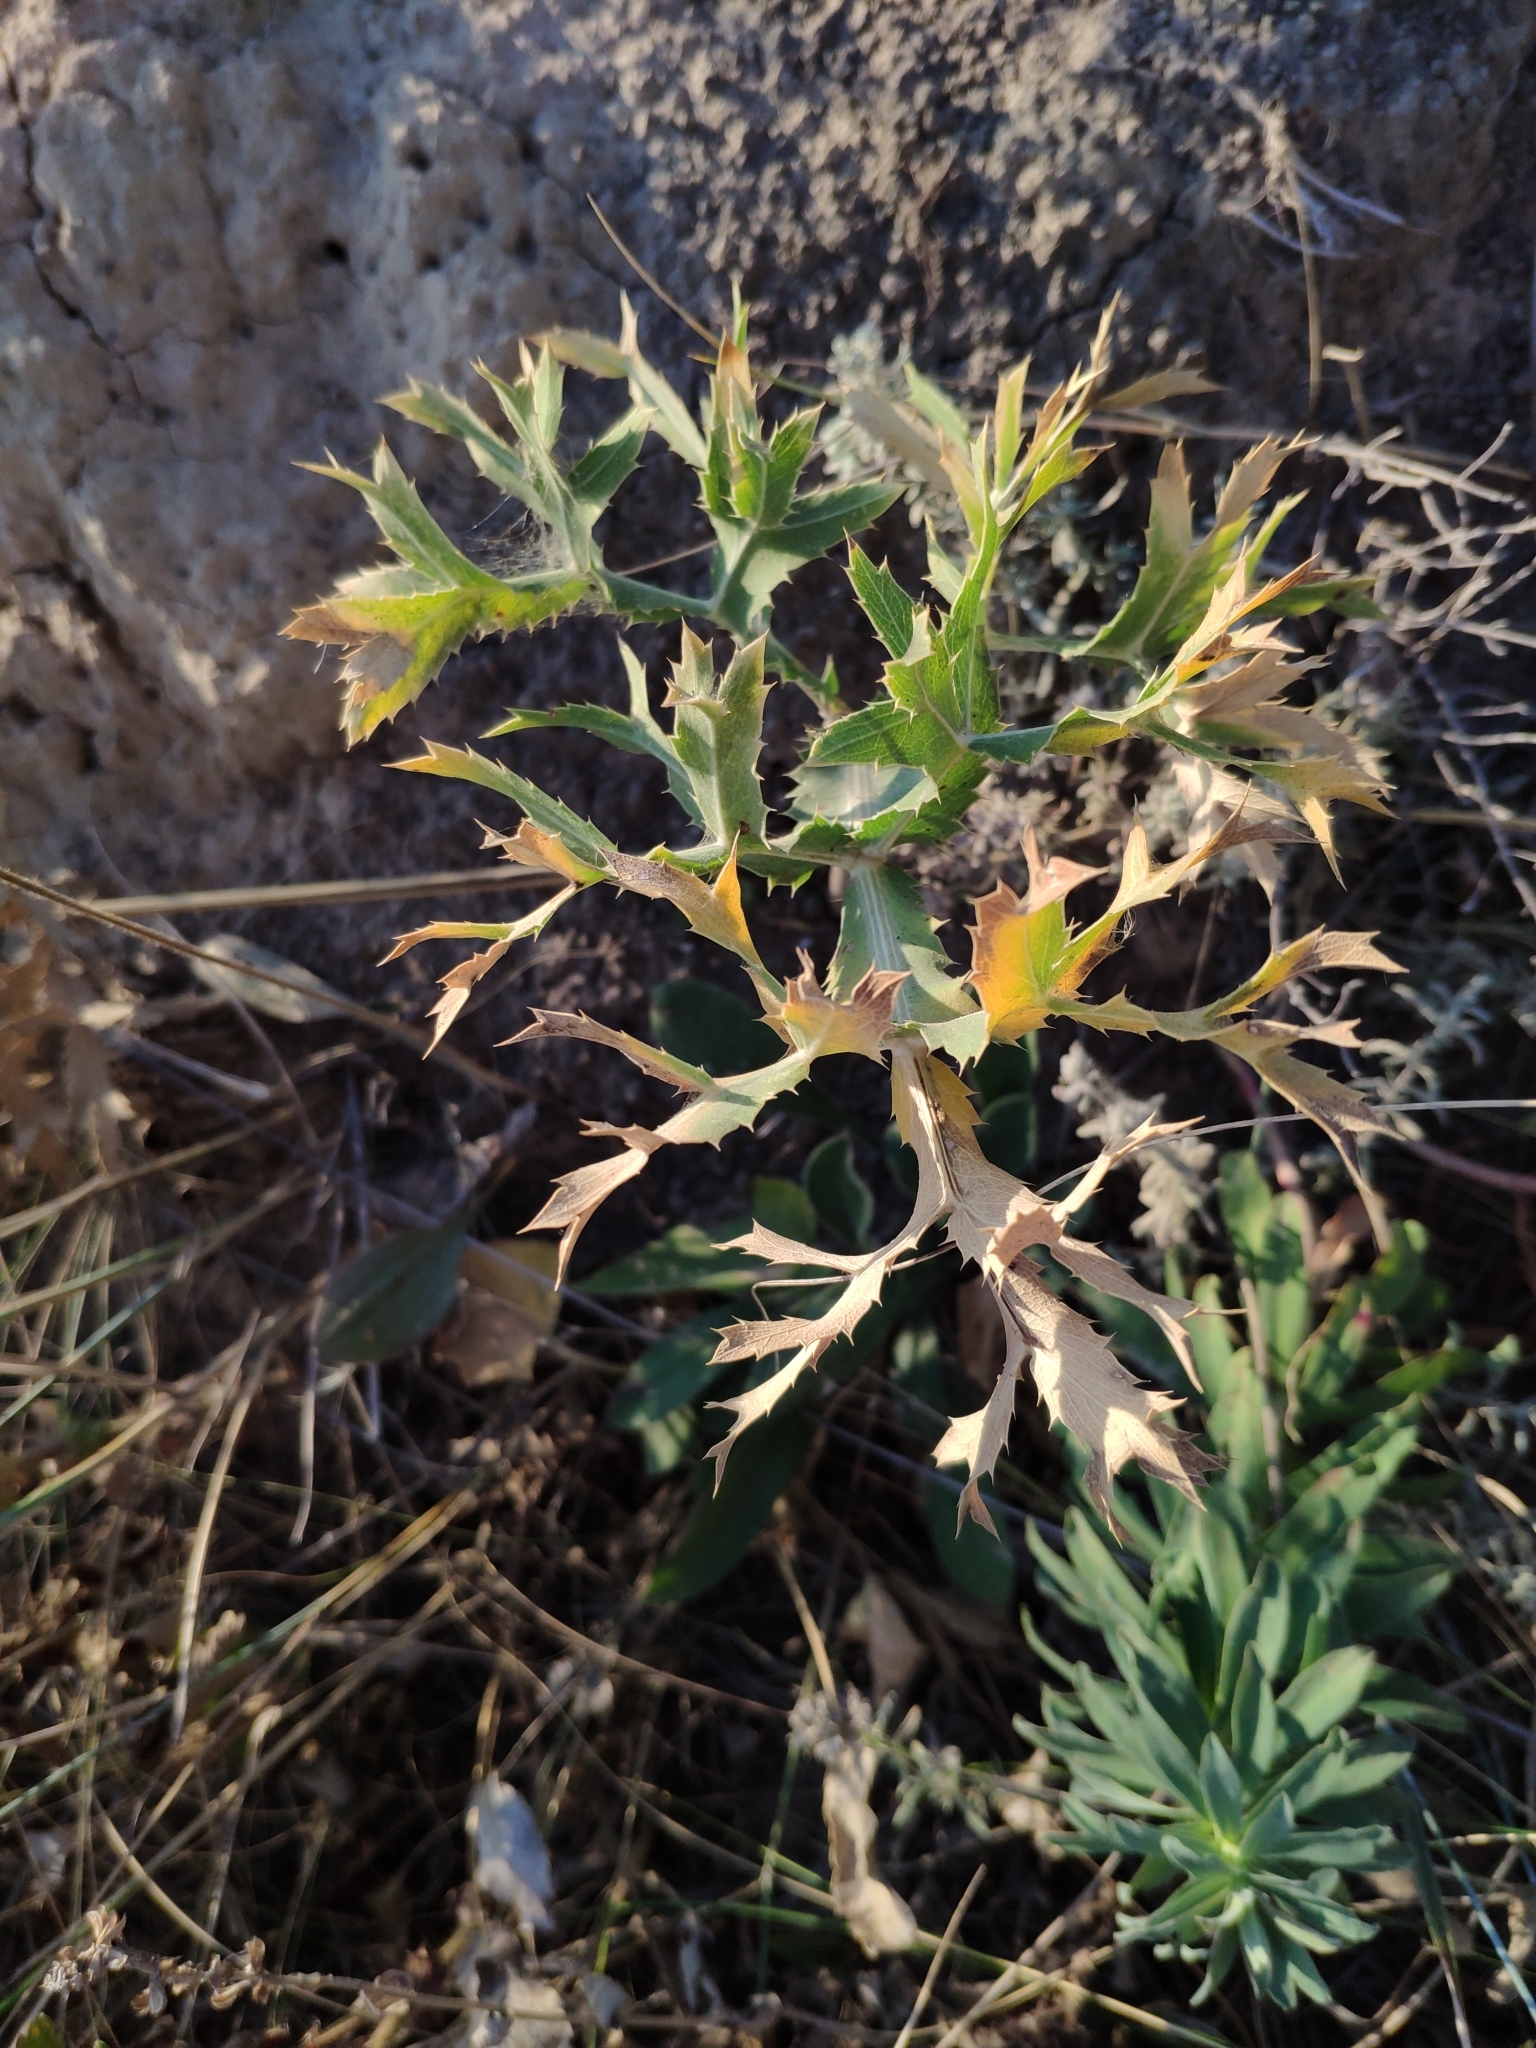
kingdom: Plantae
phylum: Tracheophyta
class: Magnoliopsida
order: Apiales
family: Apiaceae
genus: Eryngium
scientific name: Eryngium campestre
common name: Field eryngo
